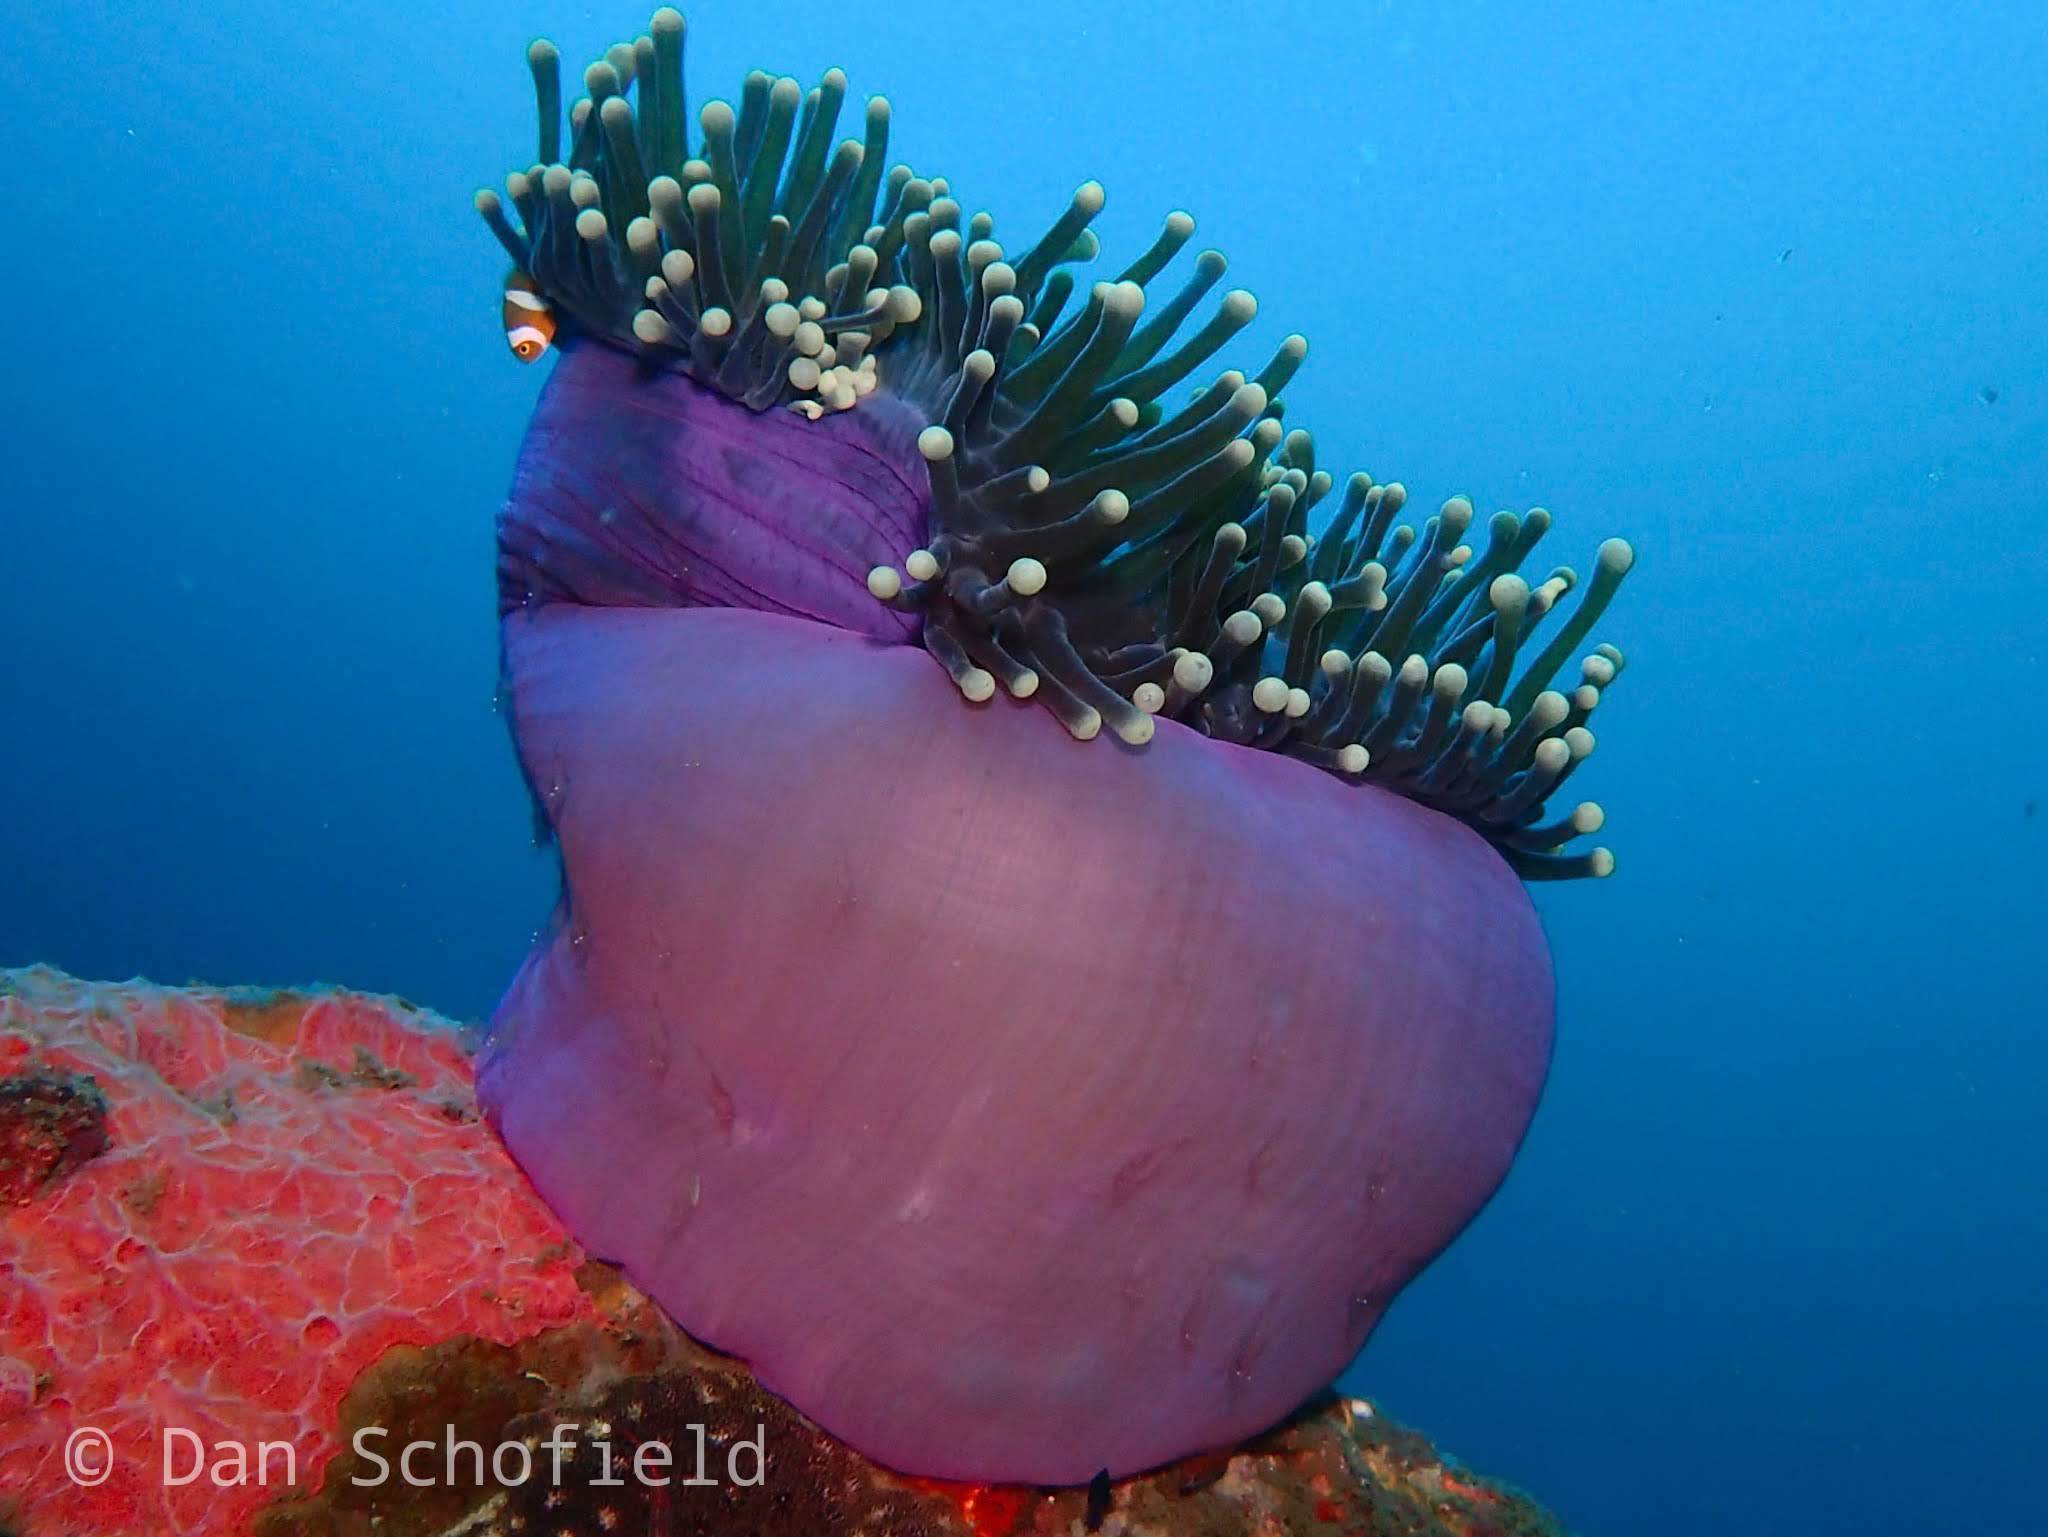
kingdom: Animalia
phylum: Cnidaria
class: Anthozoa
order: Actiniaria
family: Stichodactylidae
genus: Radianthus
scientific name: Radianthus magnifica
